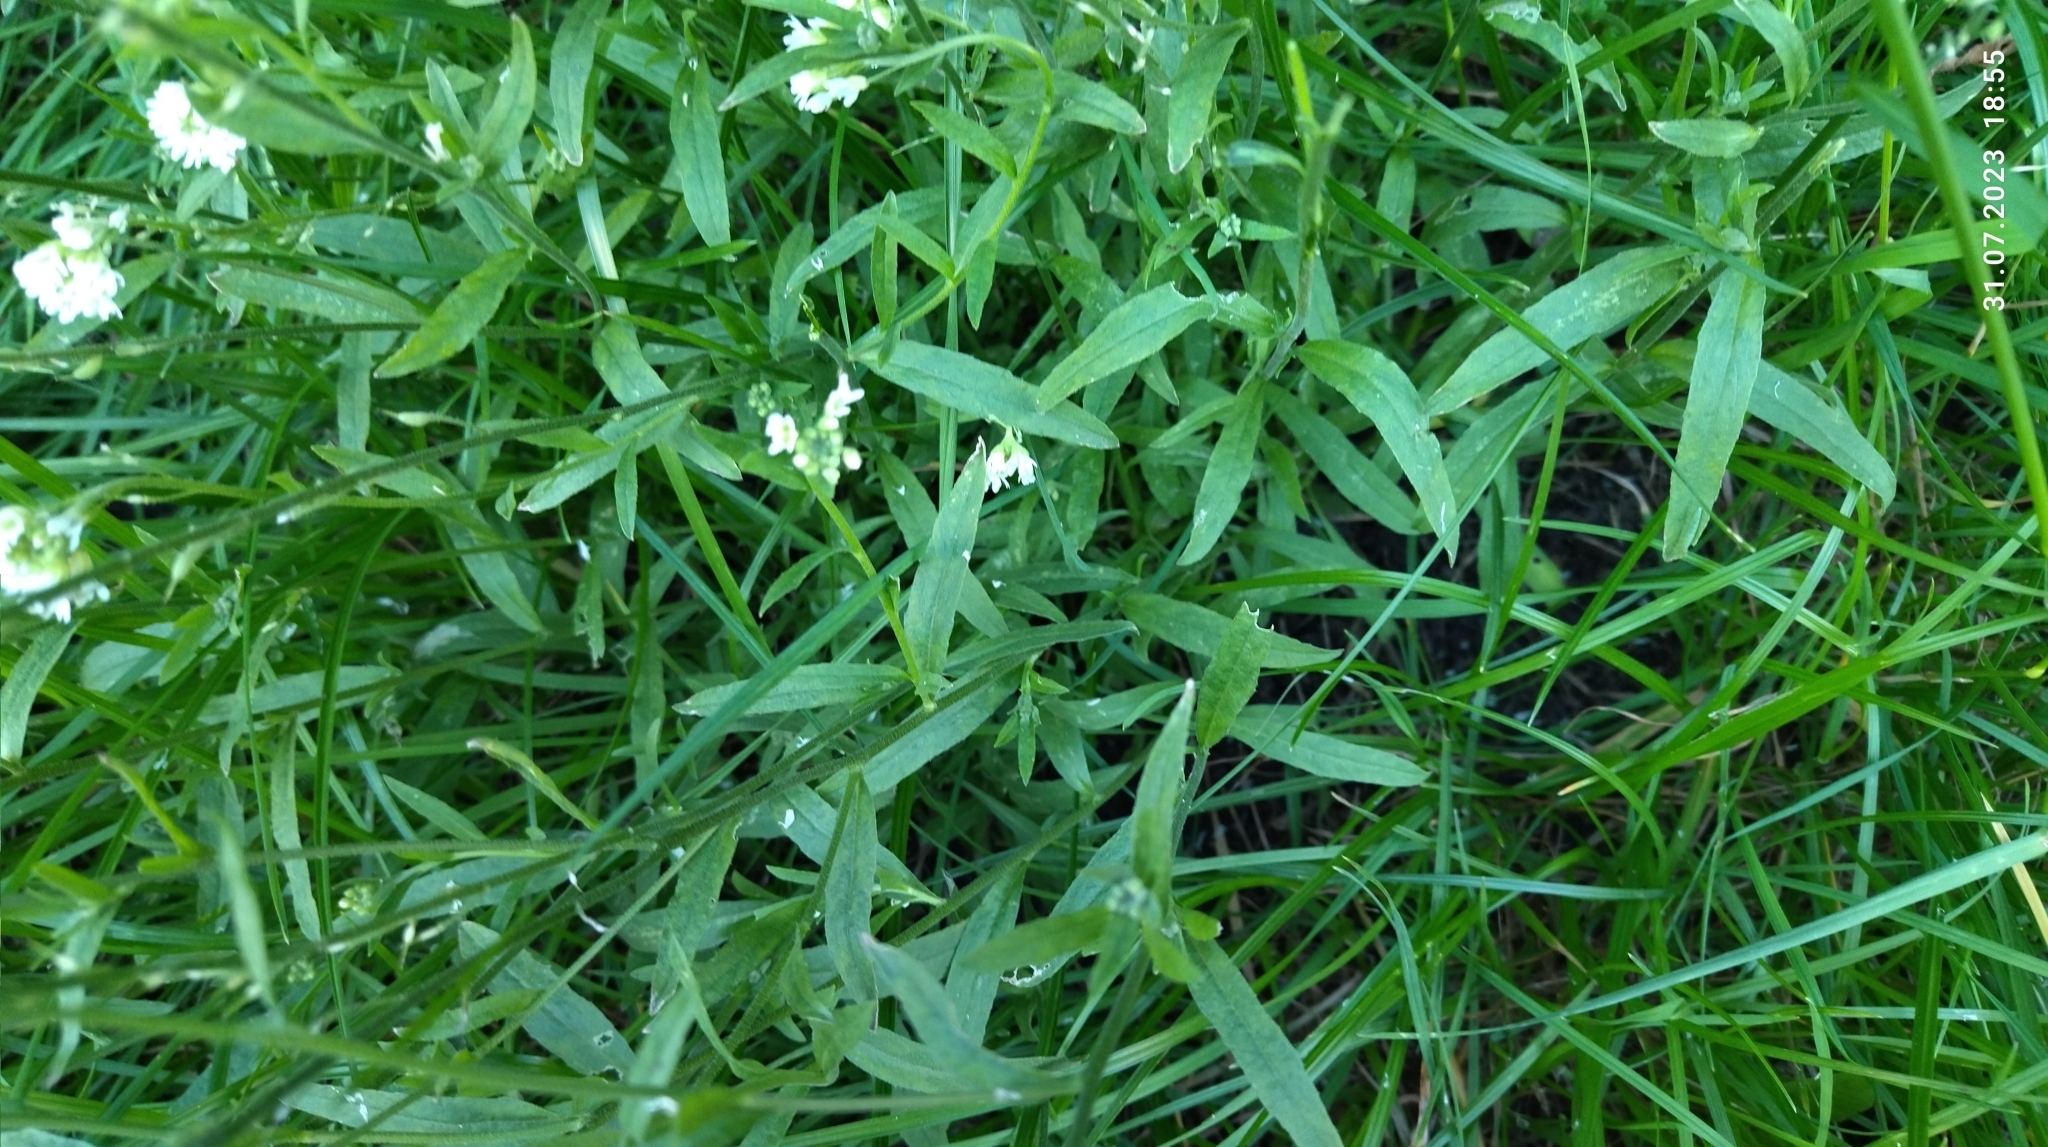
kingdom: Plantae
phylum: Tracheophyta
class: Magnoliopsida
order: Brassicales
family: Brassicaceae
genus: Berteroa
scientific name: Berteroa incana
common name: Hoary alison
